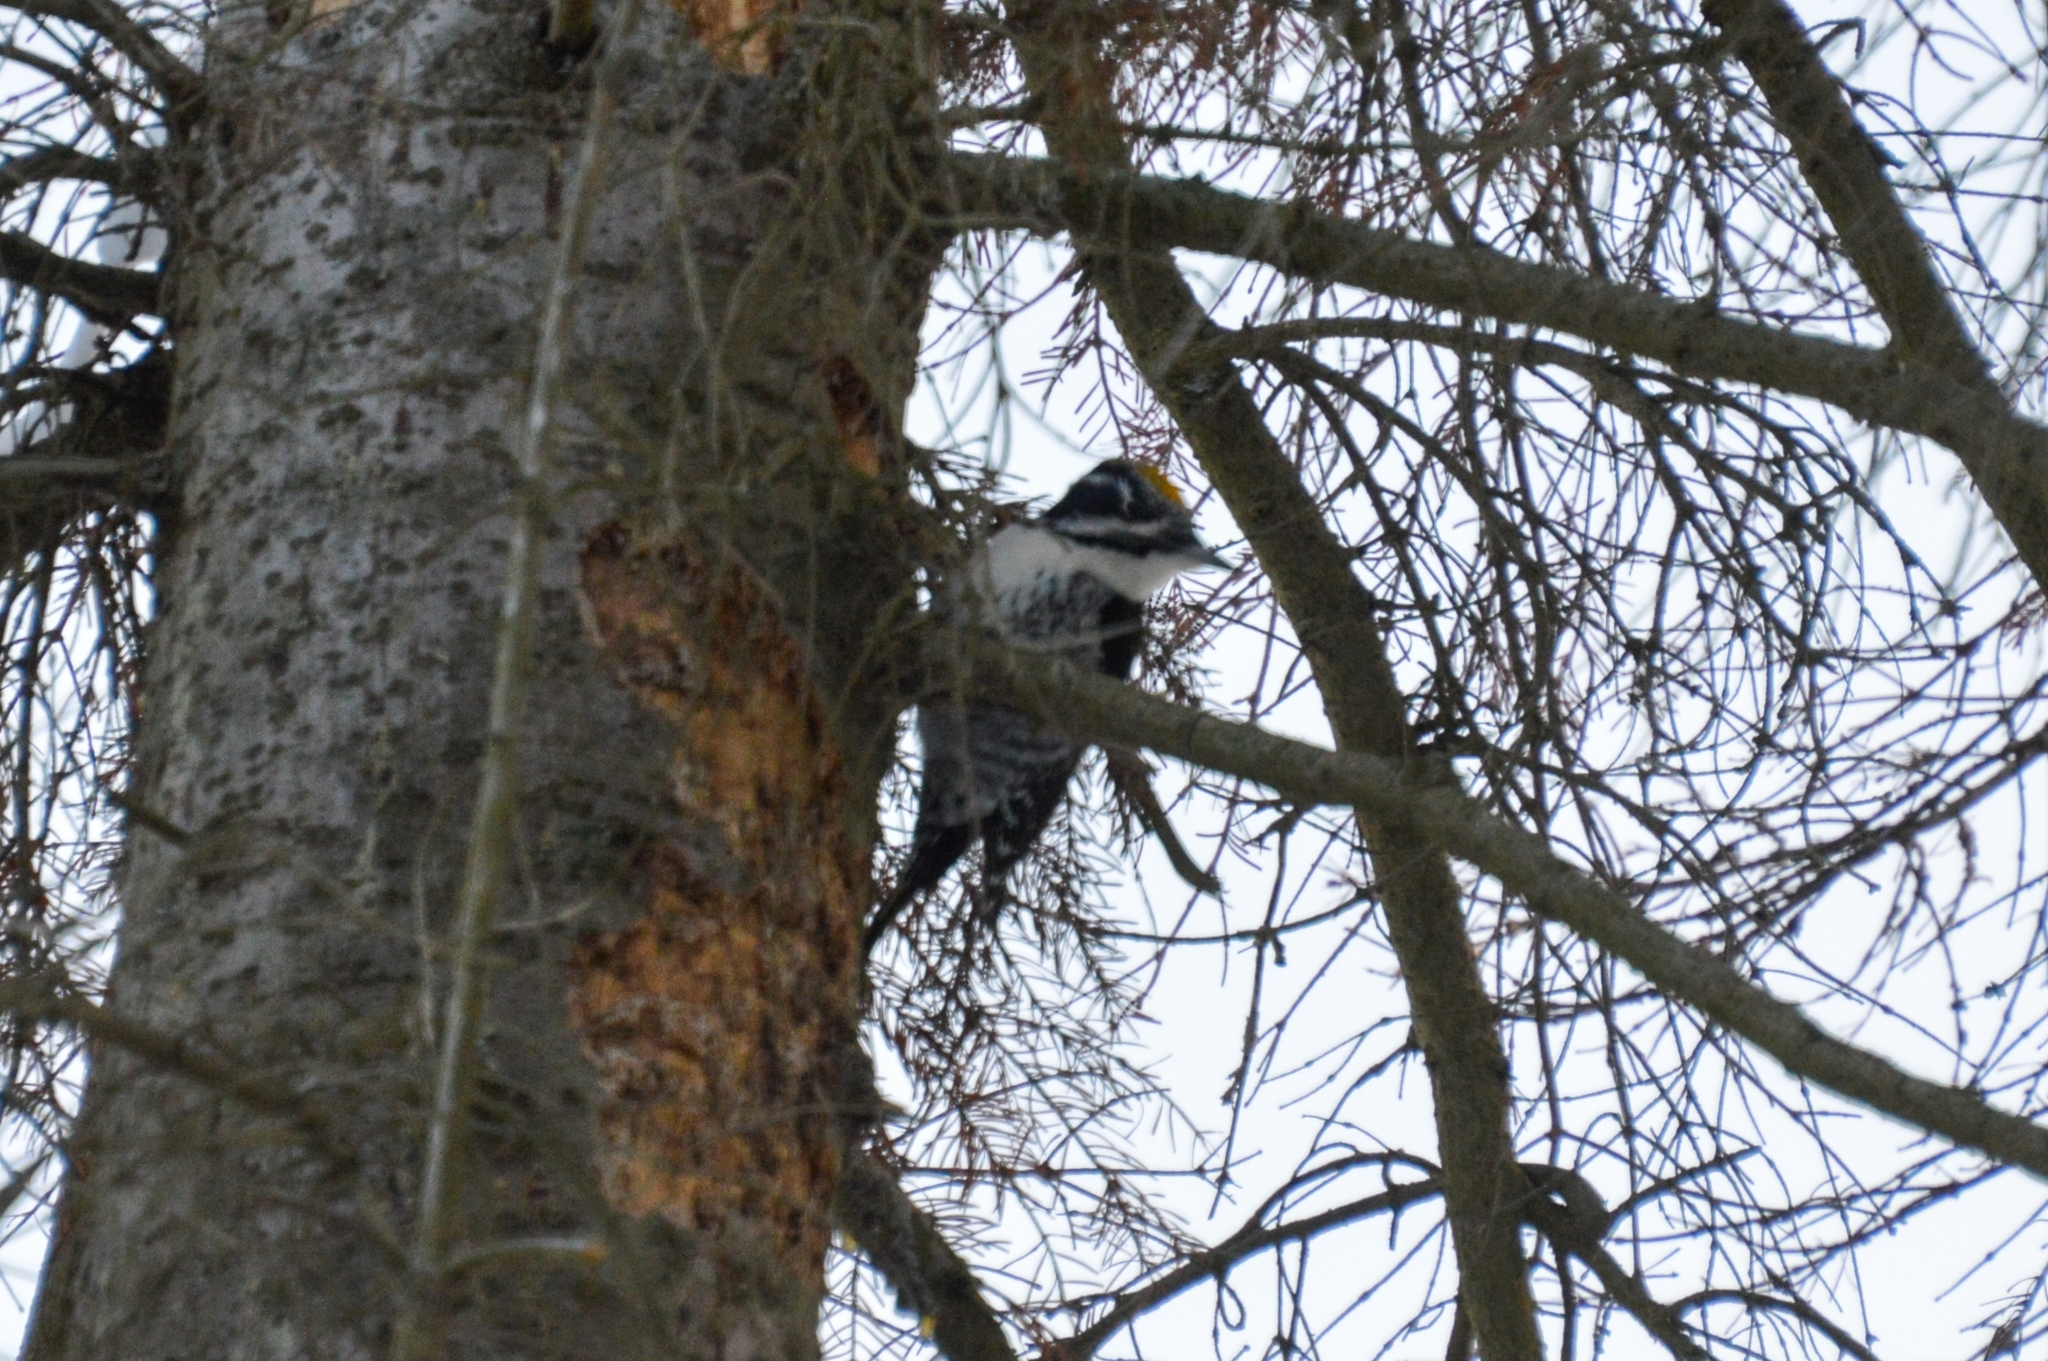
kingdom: Animalia
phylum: Chordata
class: Aves
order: Piciformes
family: Picidae
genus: Picoides
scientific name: Picoides tridactylus
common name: Eurasian three-toed woodpecker
